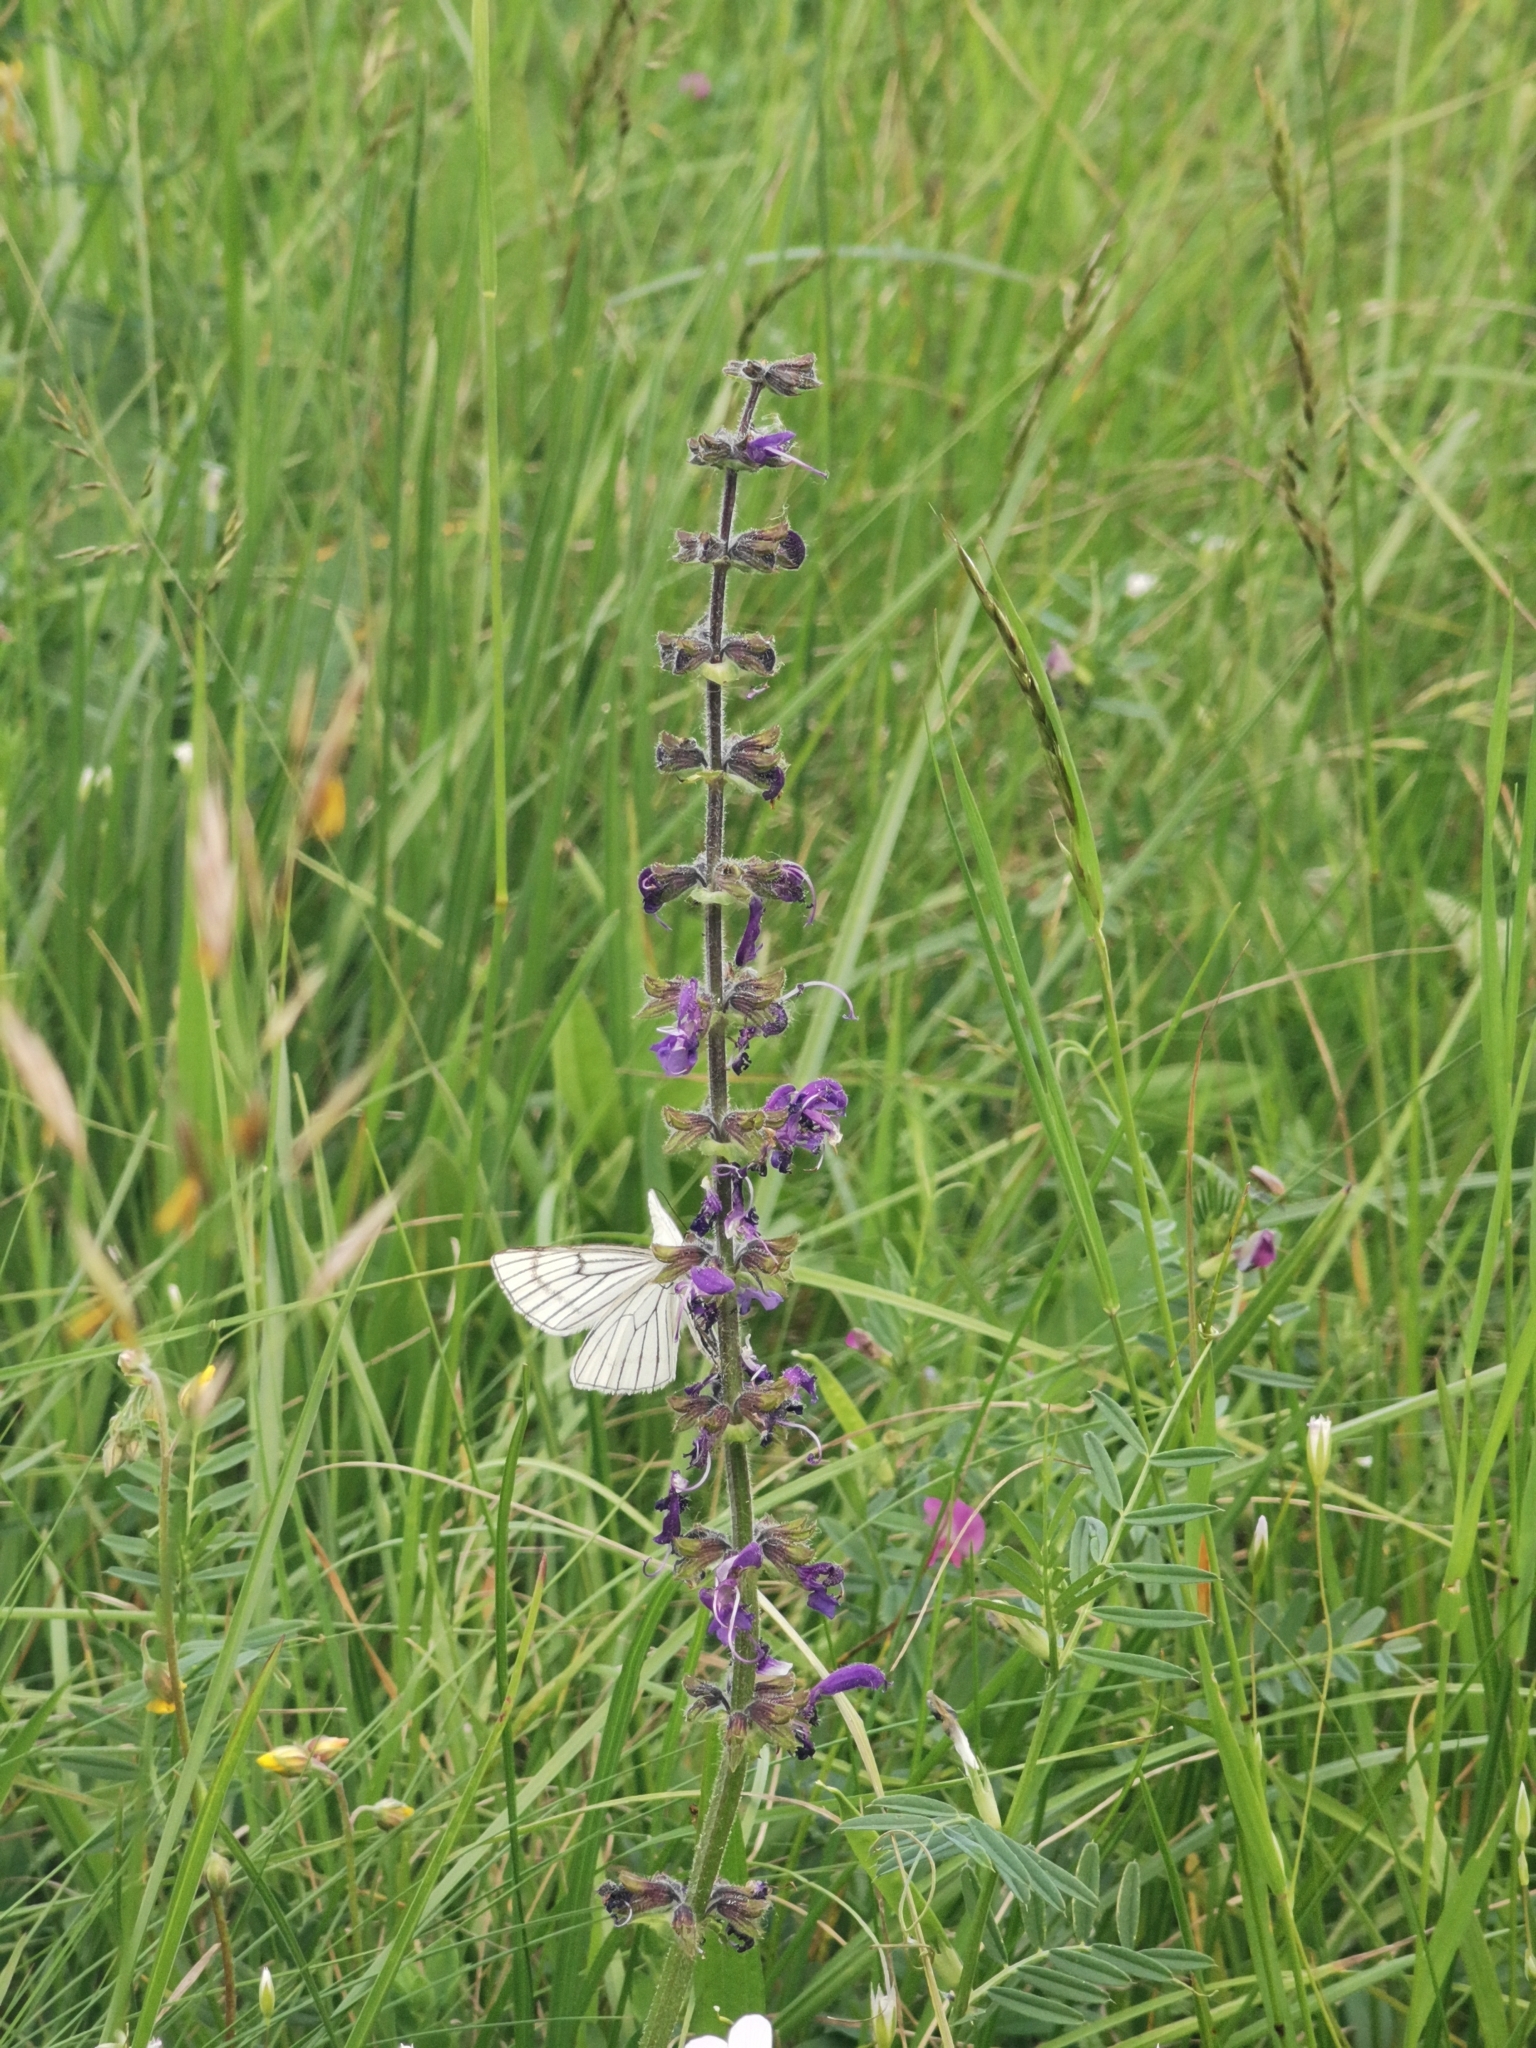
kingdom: Animalia
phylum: Arthropoda
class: Insecta
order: Lepidoptera
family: Geometridae
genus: Siona
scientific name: Siona lineata
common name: Black-veined moth
